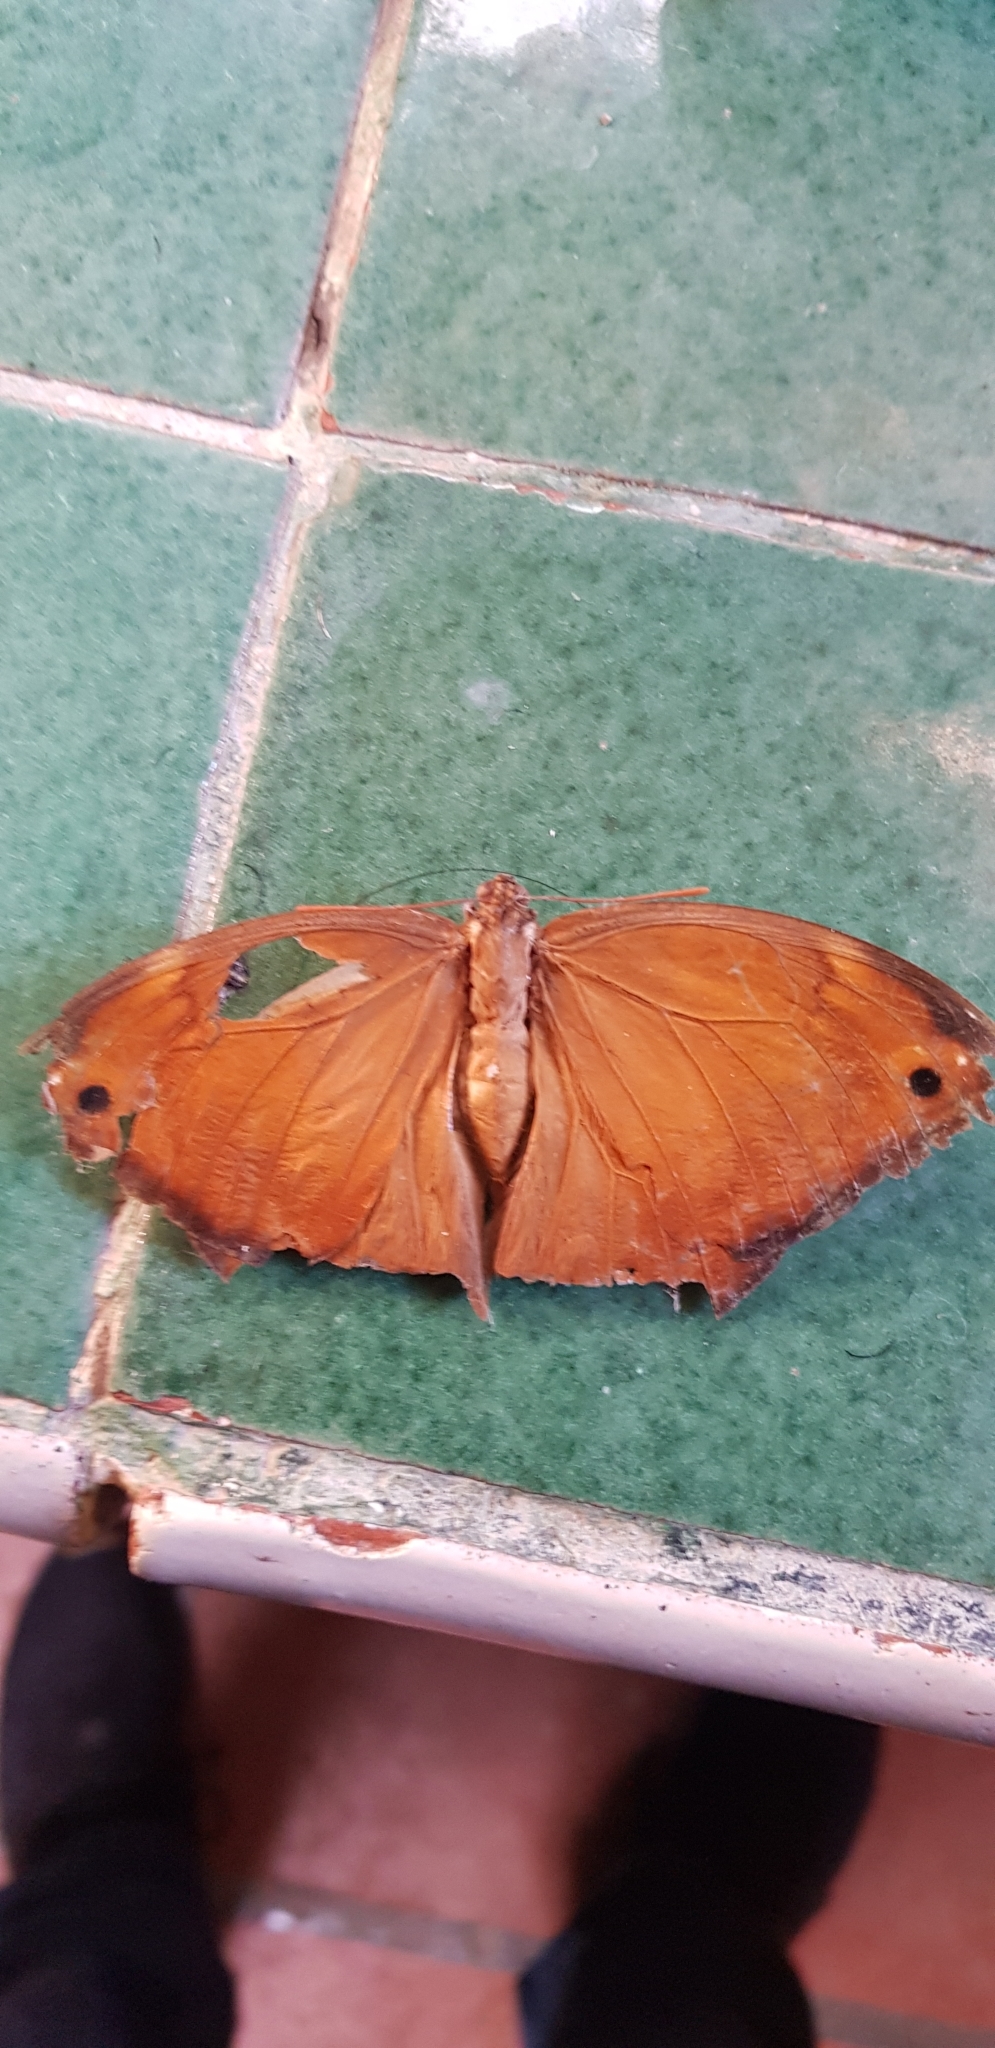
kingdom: Animalia
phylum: Arthropoda
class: Insecta
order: Lepidoptera
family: Nymphalidae
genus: Opsiphanes
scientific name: Opsiphanes boisduvalii
